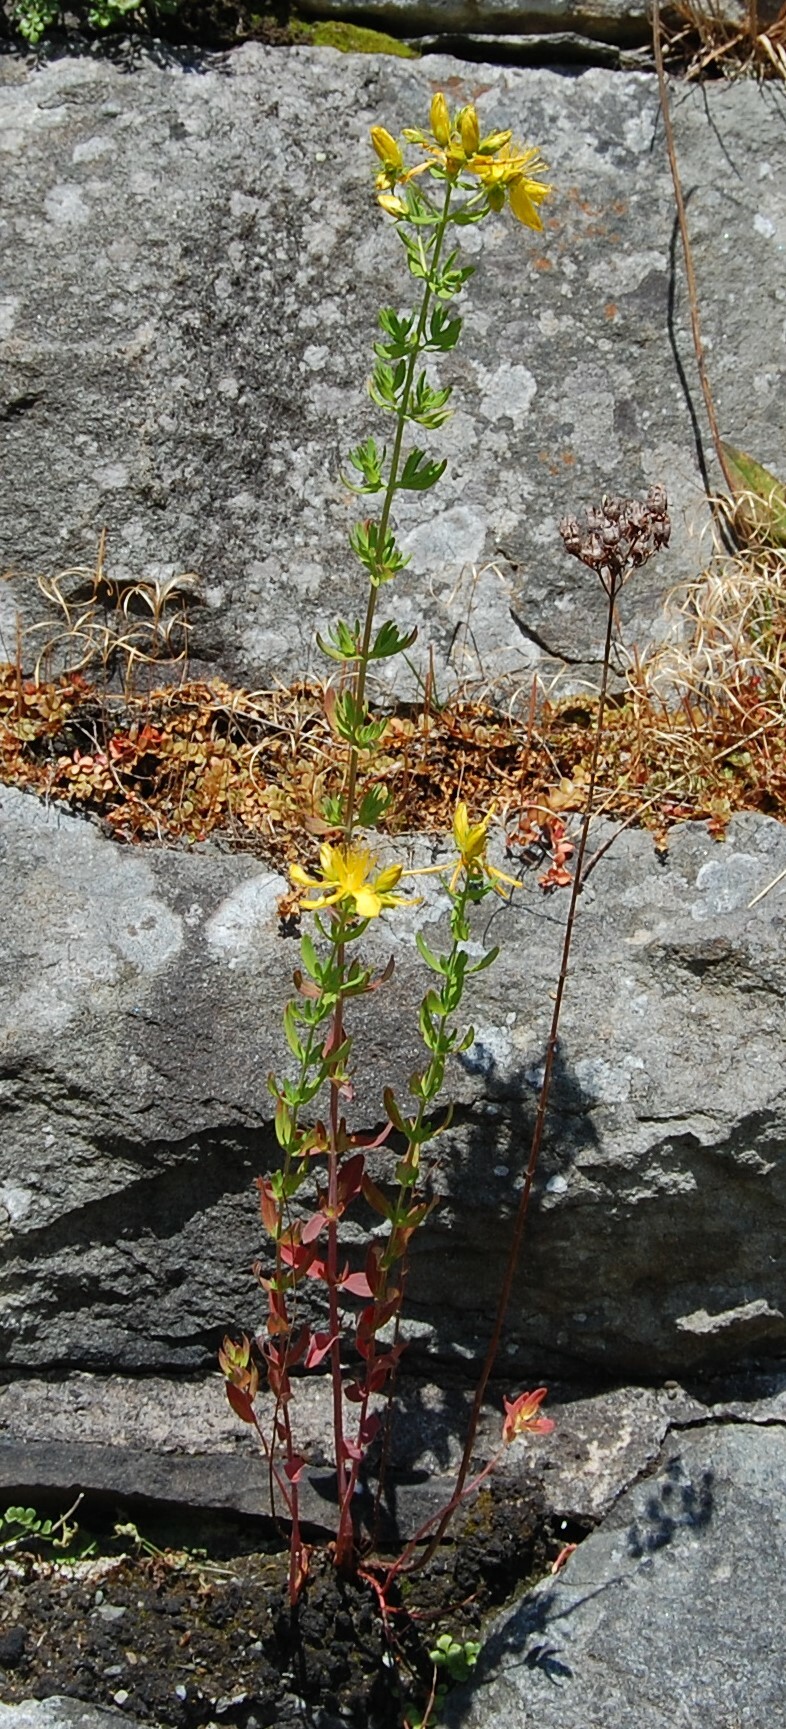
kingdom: Plantae
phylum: Tracheophyta
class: Magnoliopsida
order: Malpighiales
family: Hypericaceae
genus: Hypericum
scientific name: Hypericum perforatum
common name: Common st. johnswort
